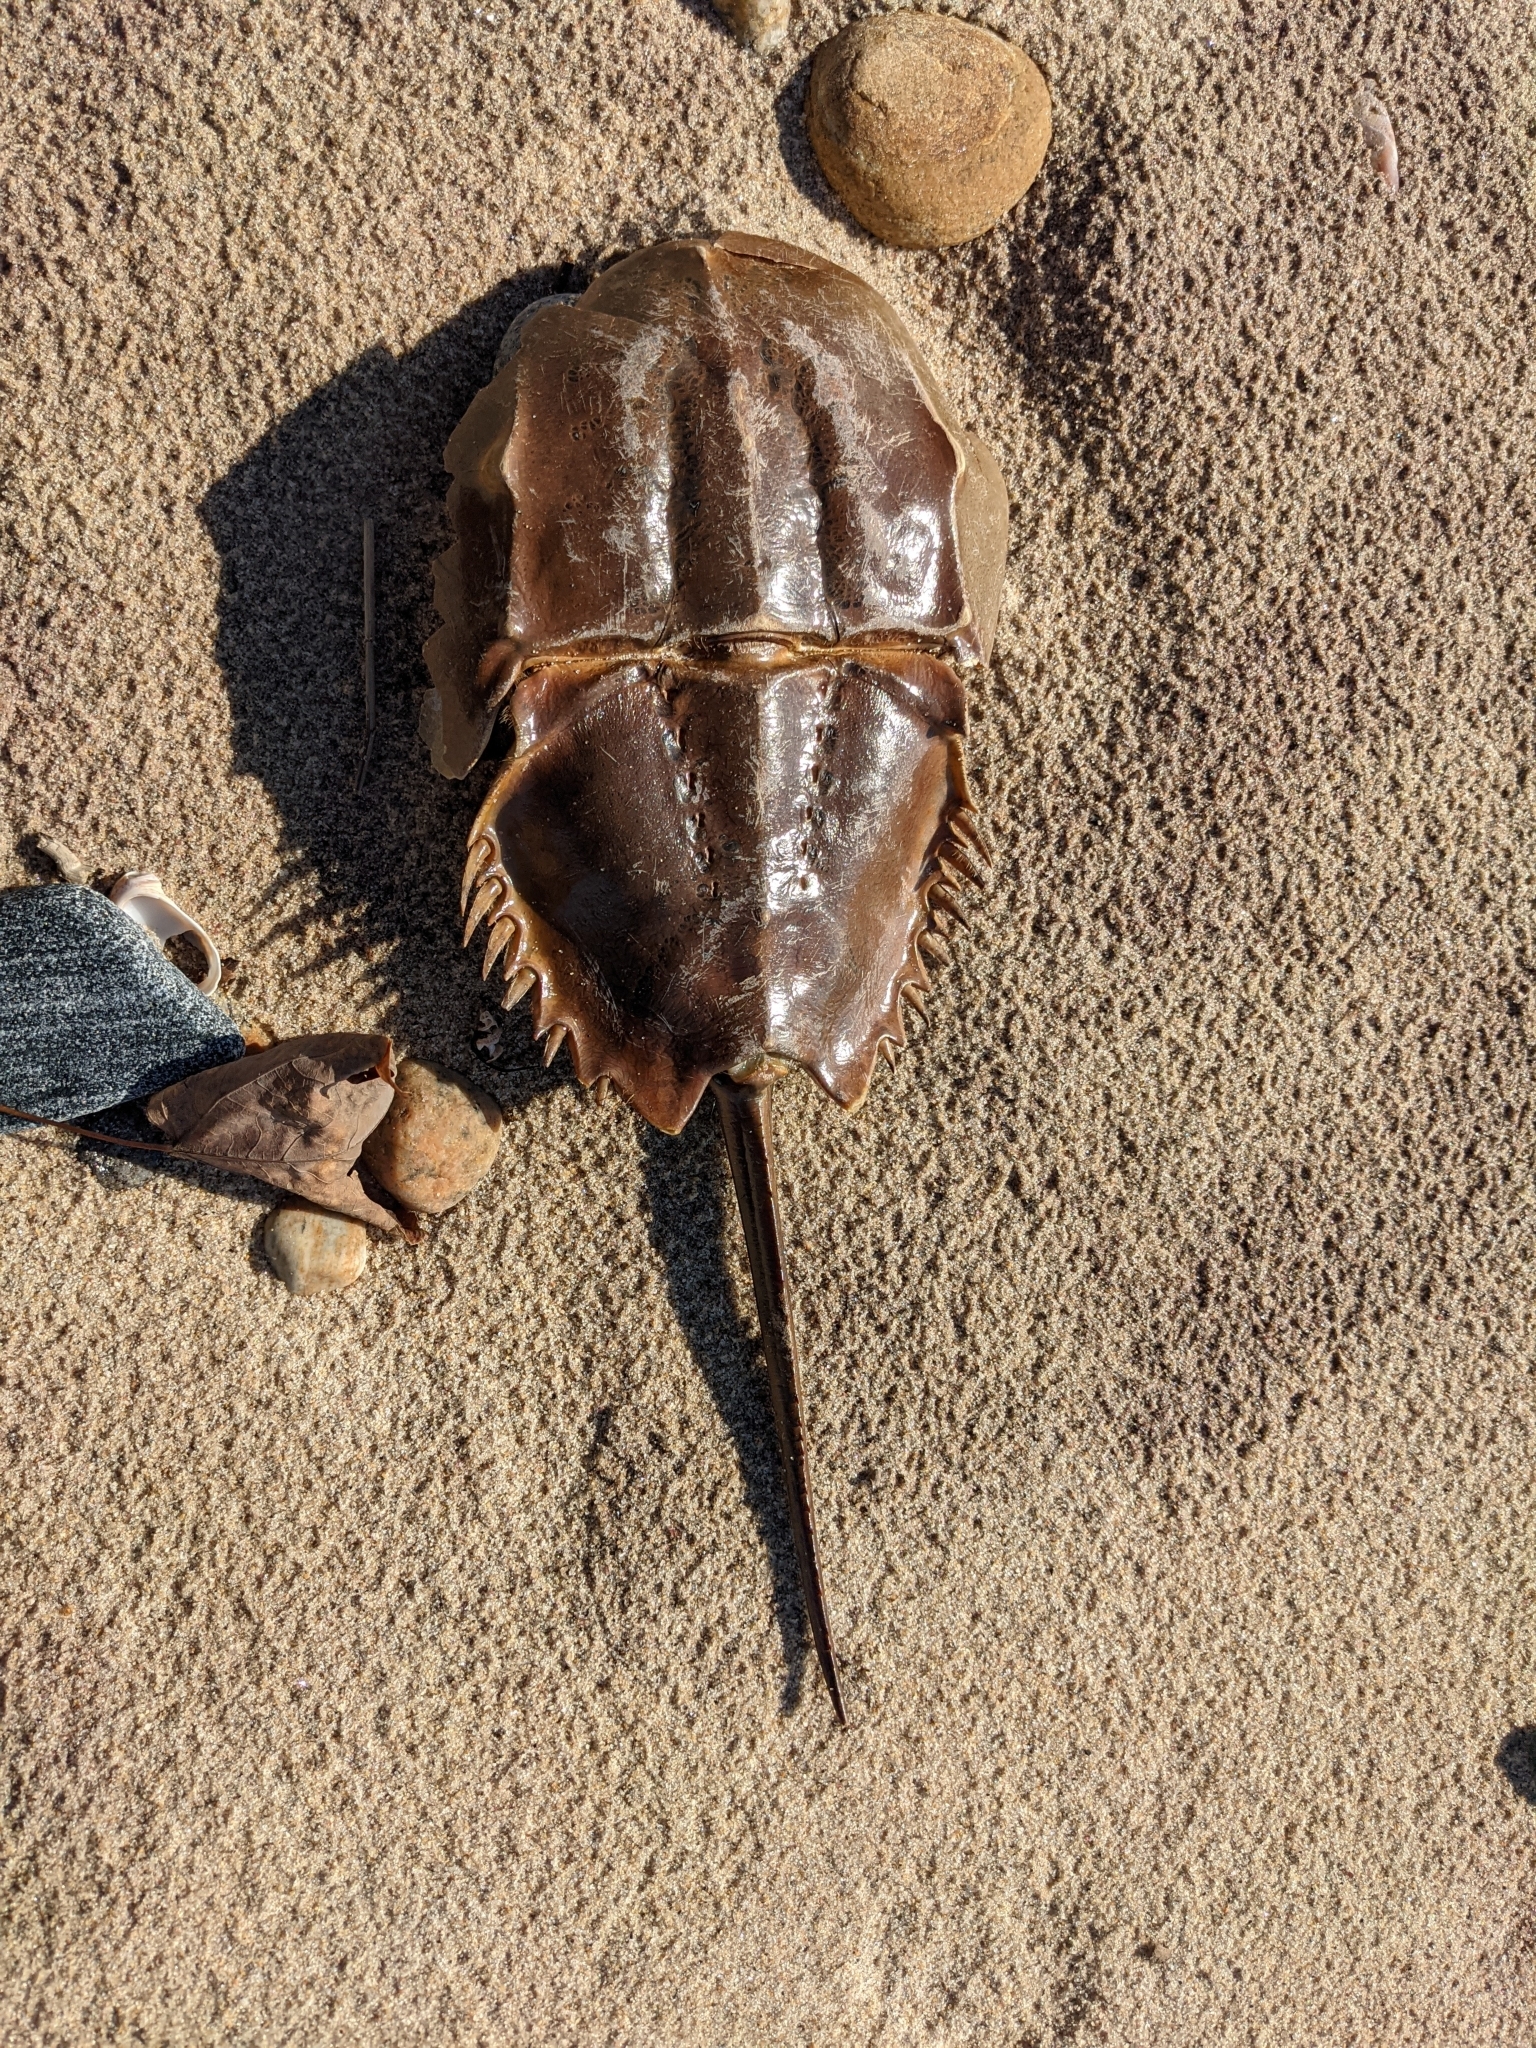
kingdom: Animalia
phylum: Arthropoda
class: Merostomata
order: Xiphosurida
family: Limulidae
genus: Limulus
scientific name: Limulus polyphemus
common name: Horseshoe crab
